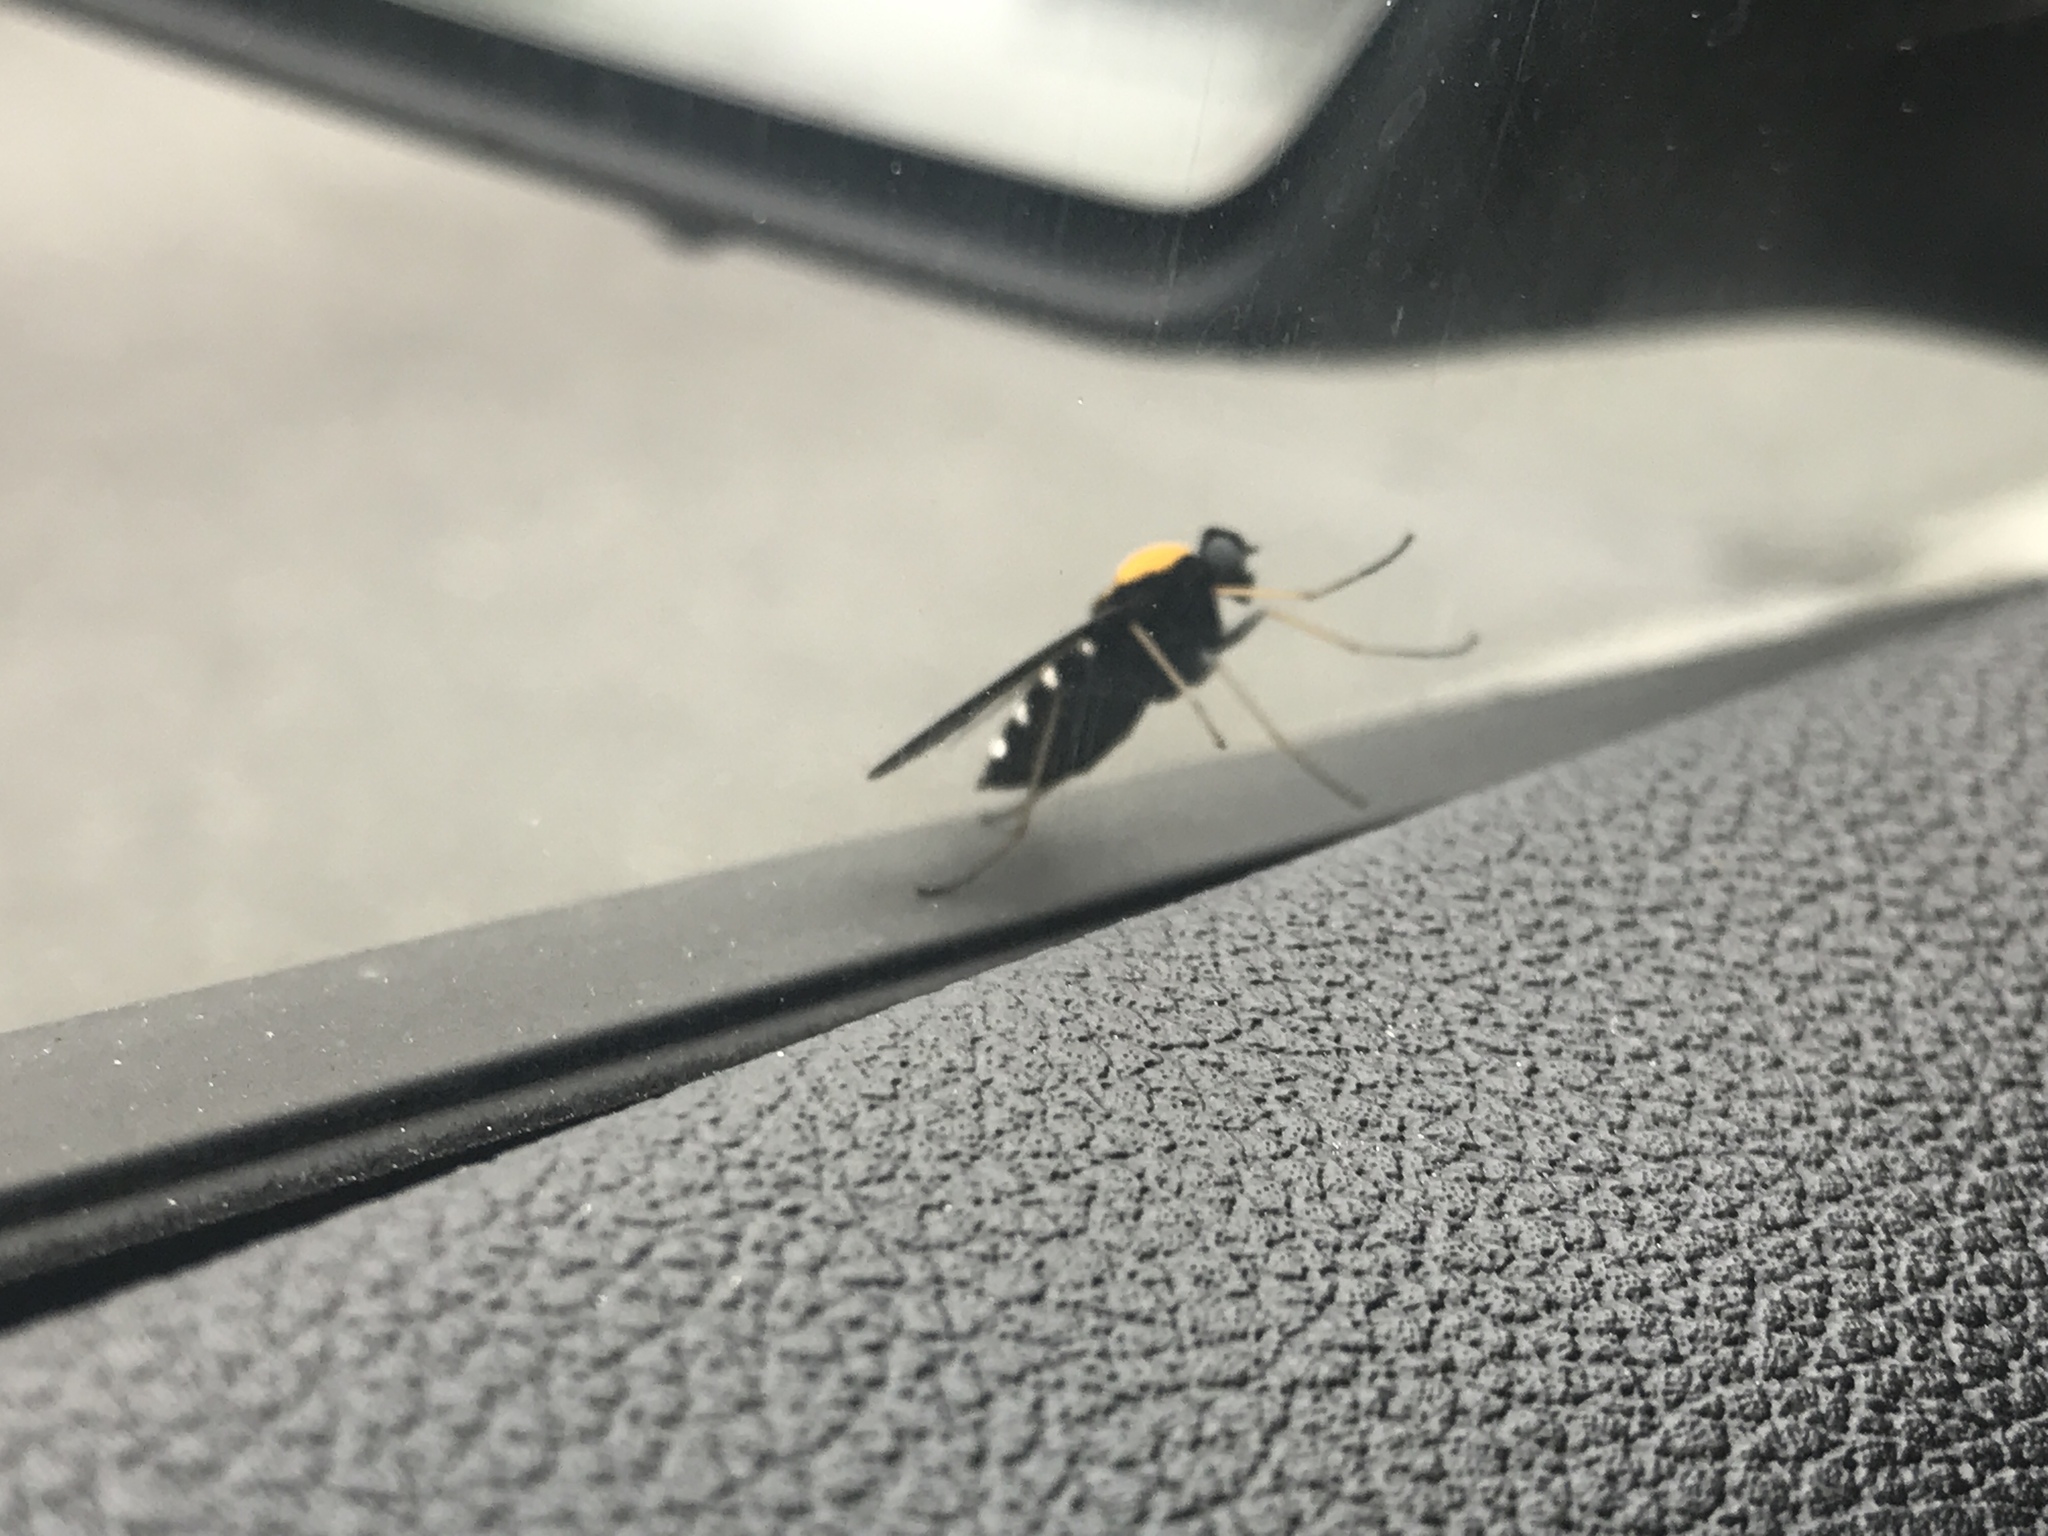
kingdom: Animalia
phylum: Arthropoda
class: Insecta
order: Diptera
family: Rhagionidae
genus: Chrysopilus
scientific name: Chrysopilus thoracicus
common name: Golden-backed snipe fly
